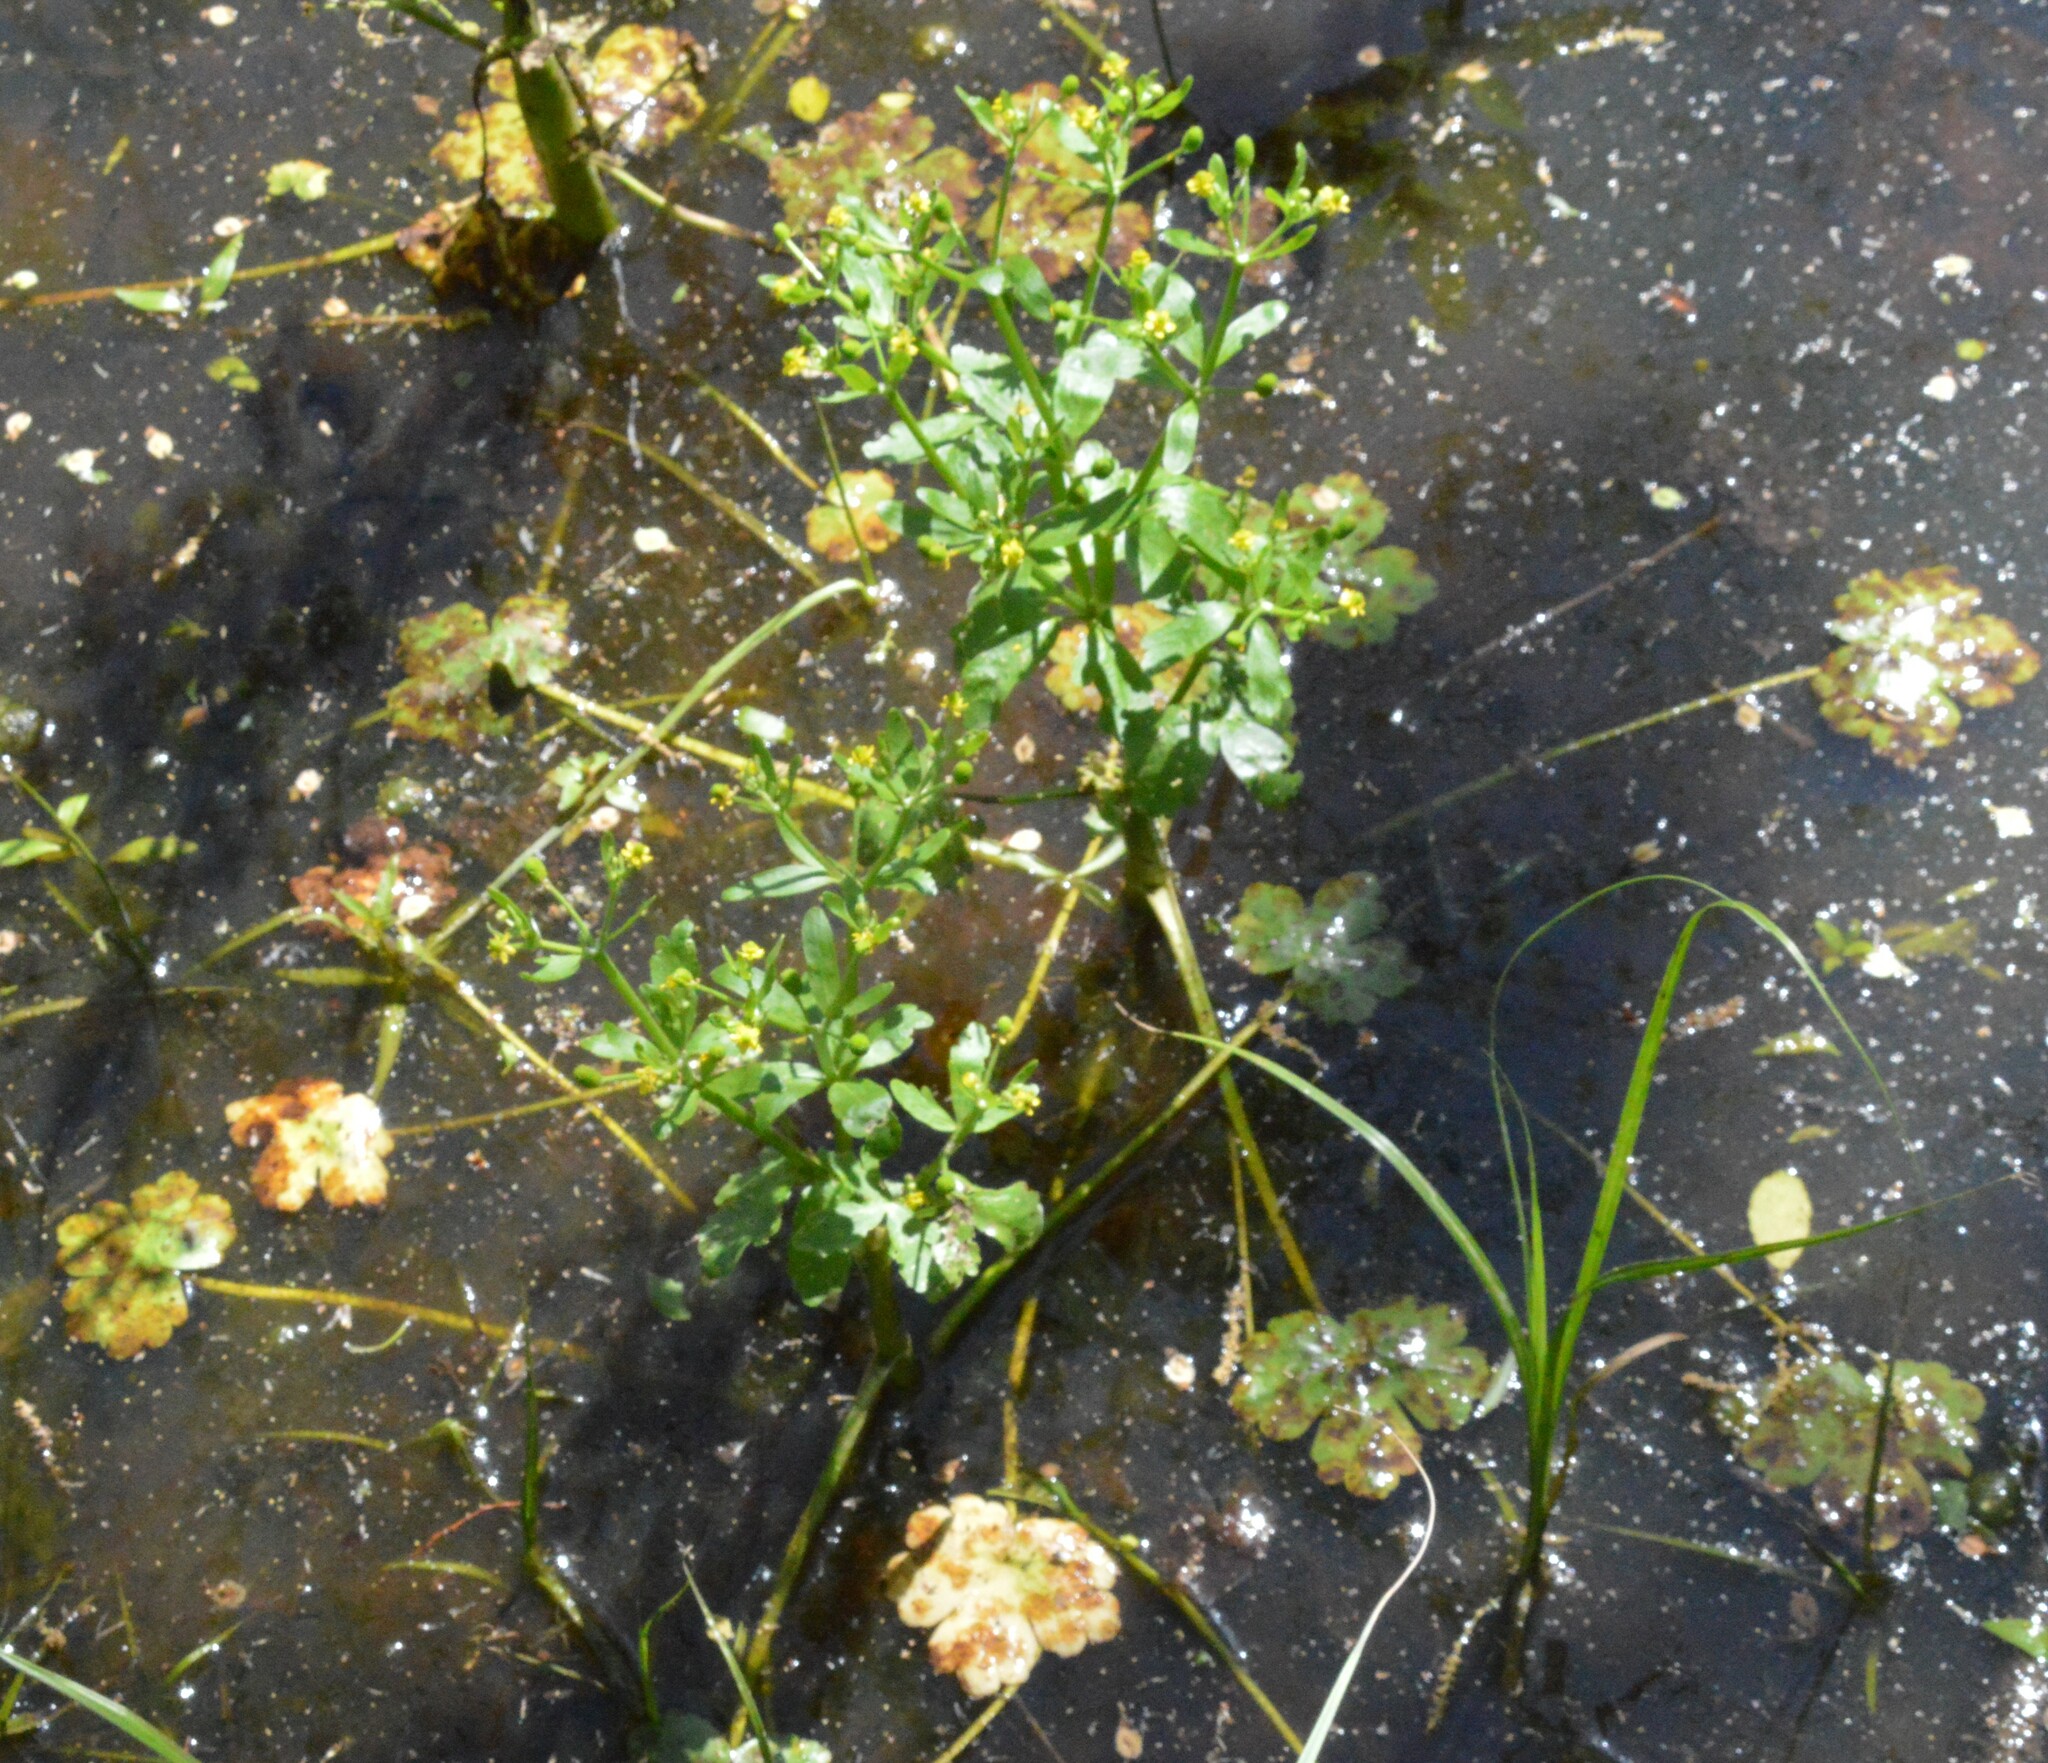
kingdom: Plantae
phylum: Tracheophyta
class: Magnoliopsida
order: Ranunculales
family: Ranunculaceae
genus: Ranunculus
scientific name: Ranunculus sceleratus
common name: Celery-leaved buttercup
